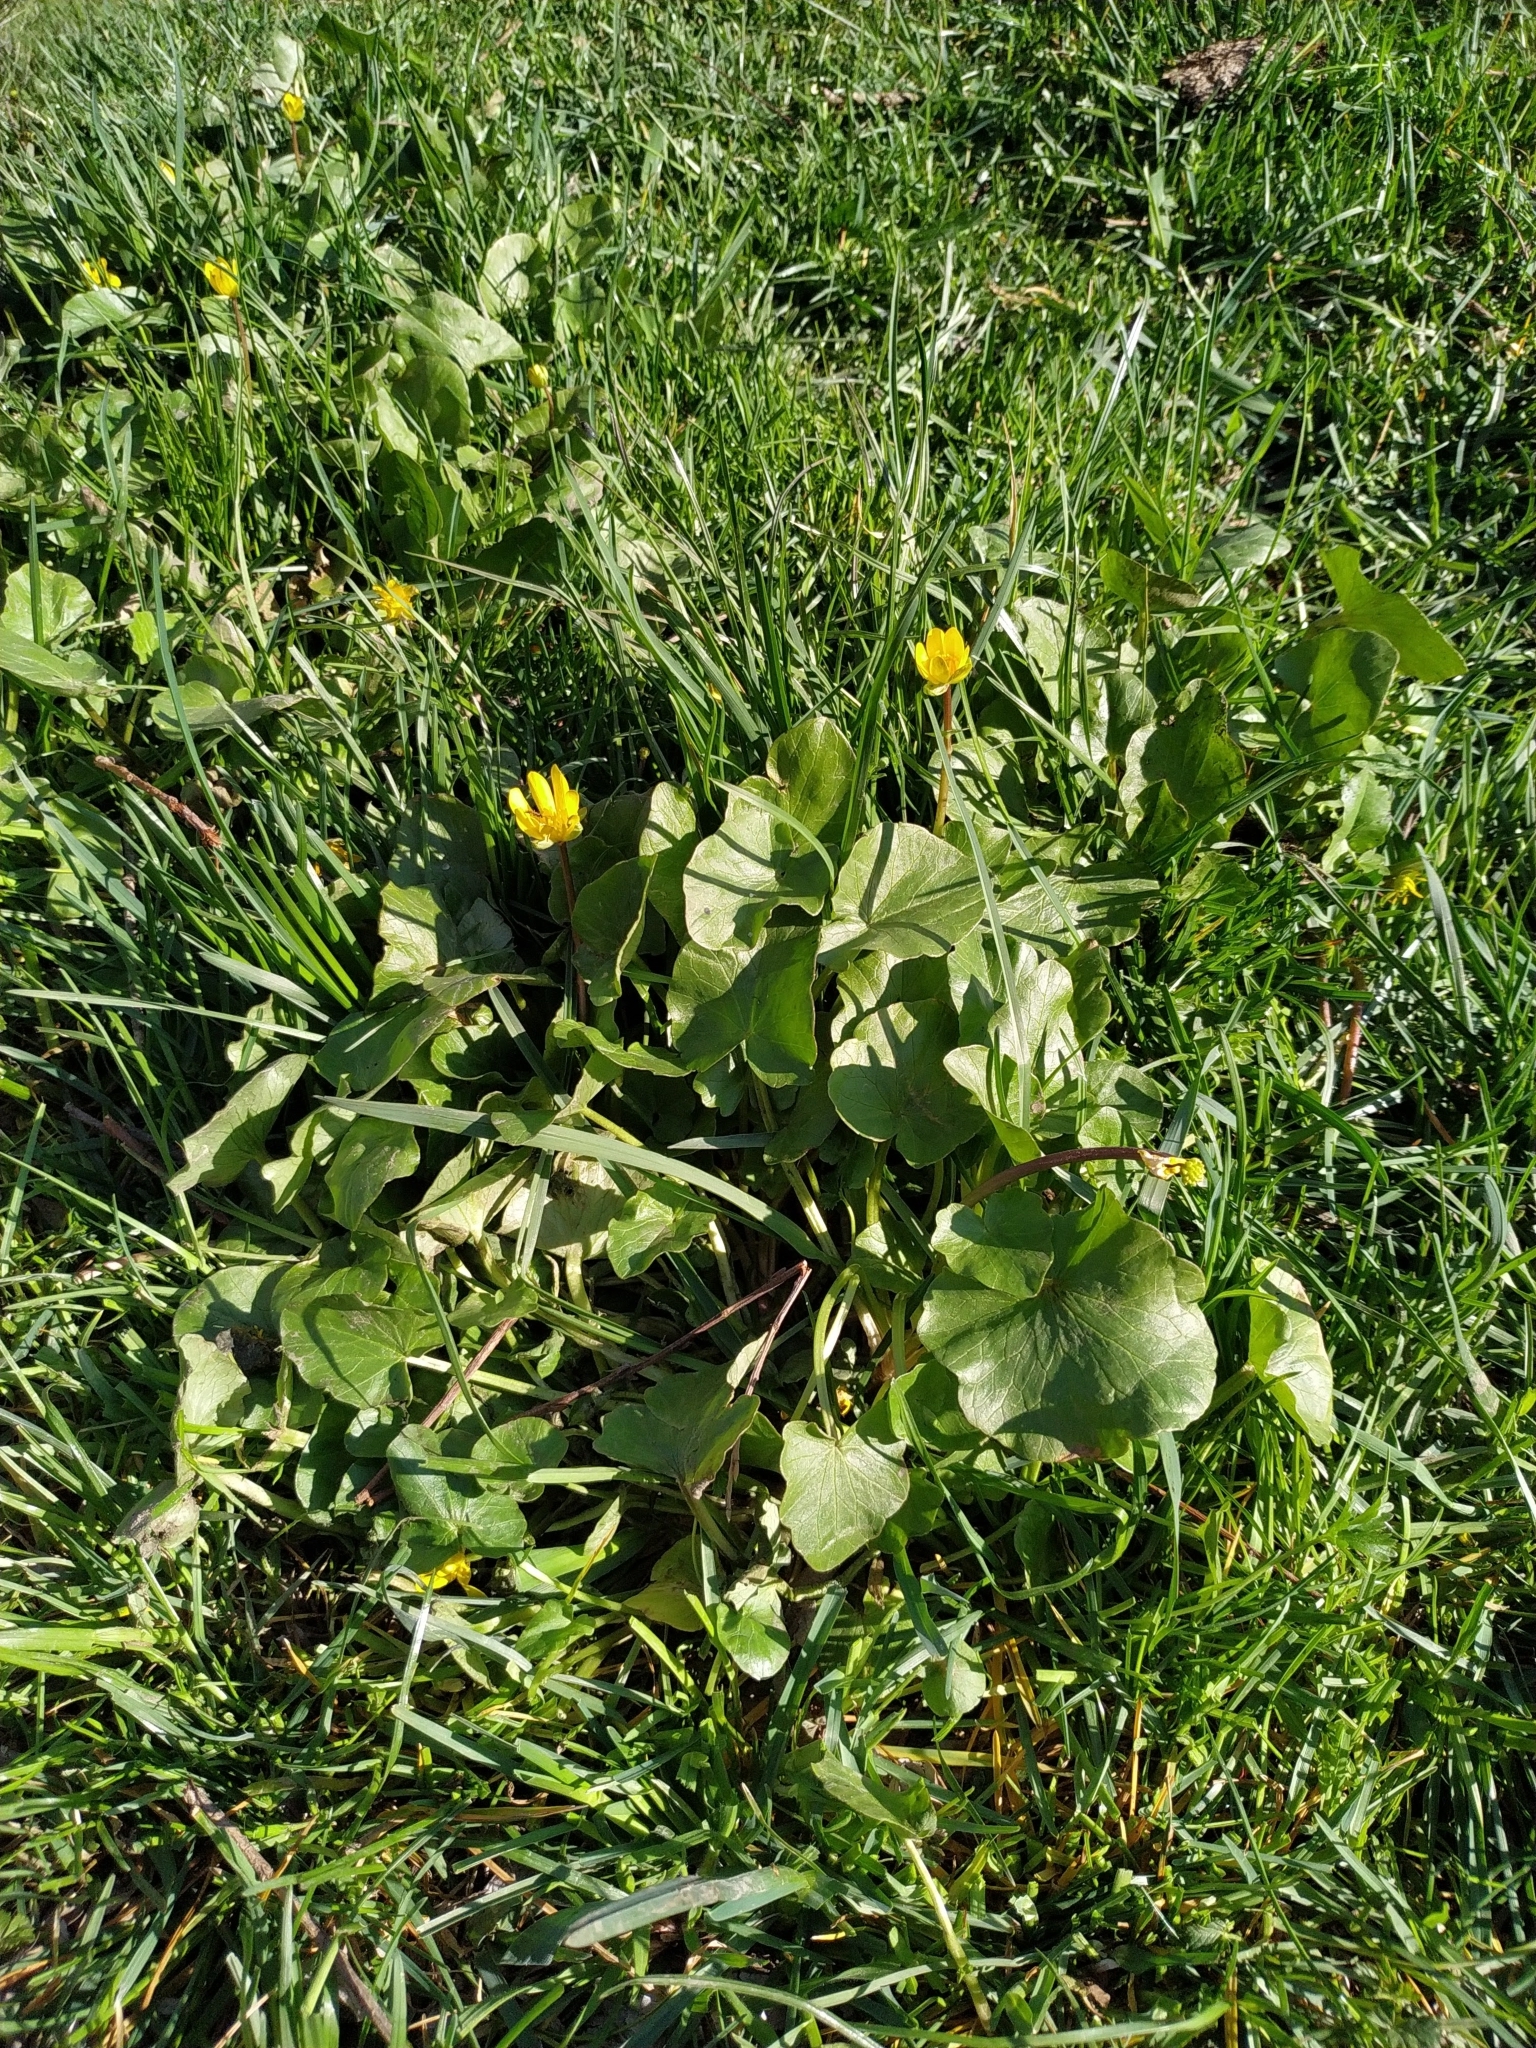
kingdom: Plantae
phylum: Tracheophyta
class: Magnoliopsida
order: Ranunculales
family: Ranunculaceae
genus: Ficaria
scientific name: Ficaria verna
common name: Lesser celandine
